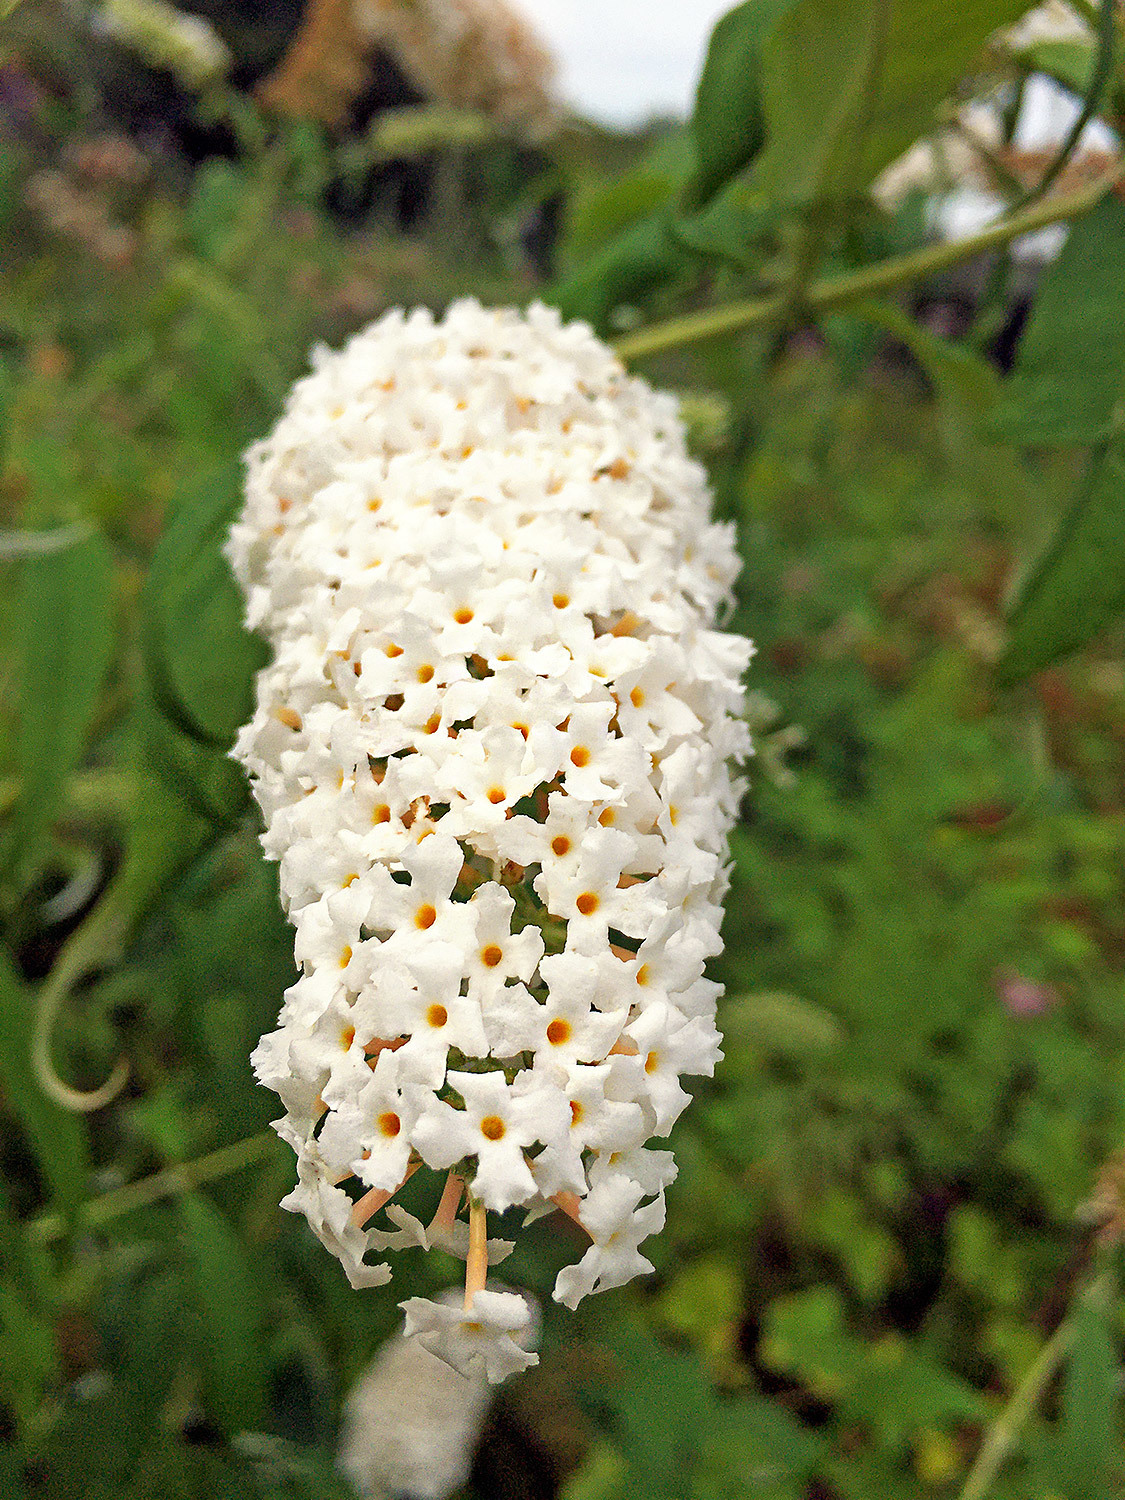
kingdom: Plantae
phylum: Tracheophyta
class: Magnoliopsida
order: Lamiales
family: Scrophulariaceae
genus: Buddleja
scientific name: Buddleja davidii
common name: Butterfly-bush
